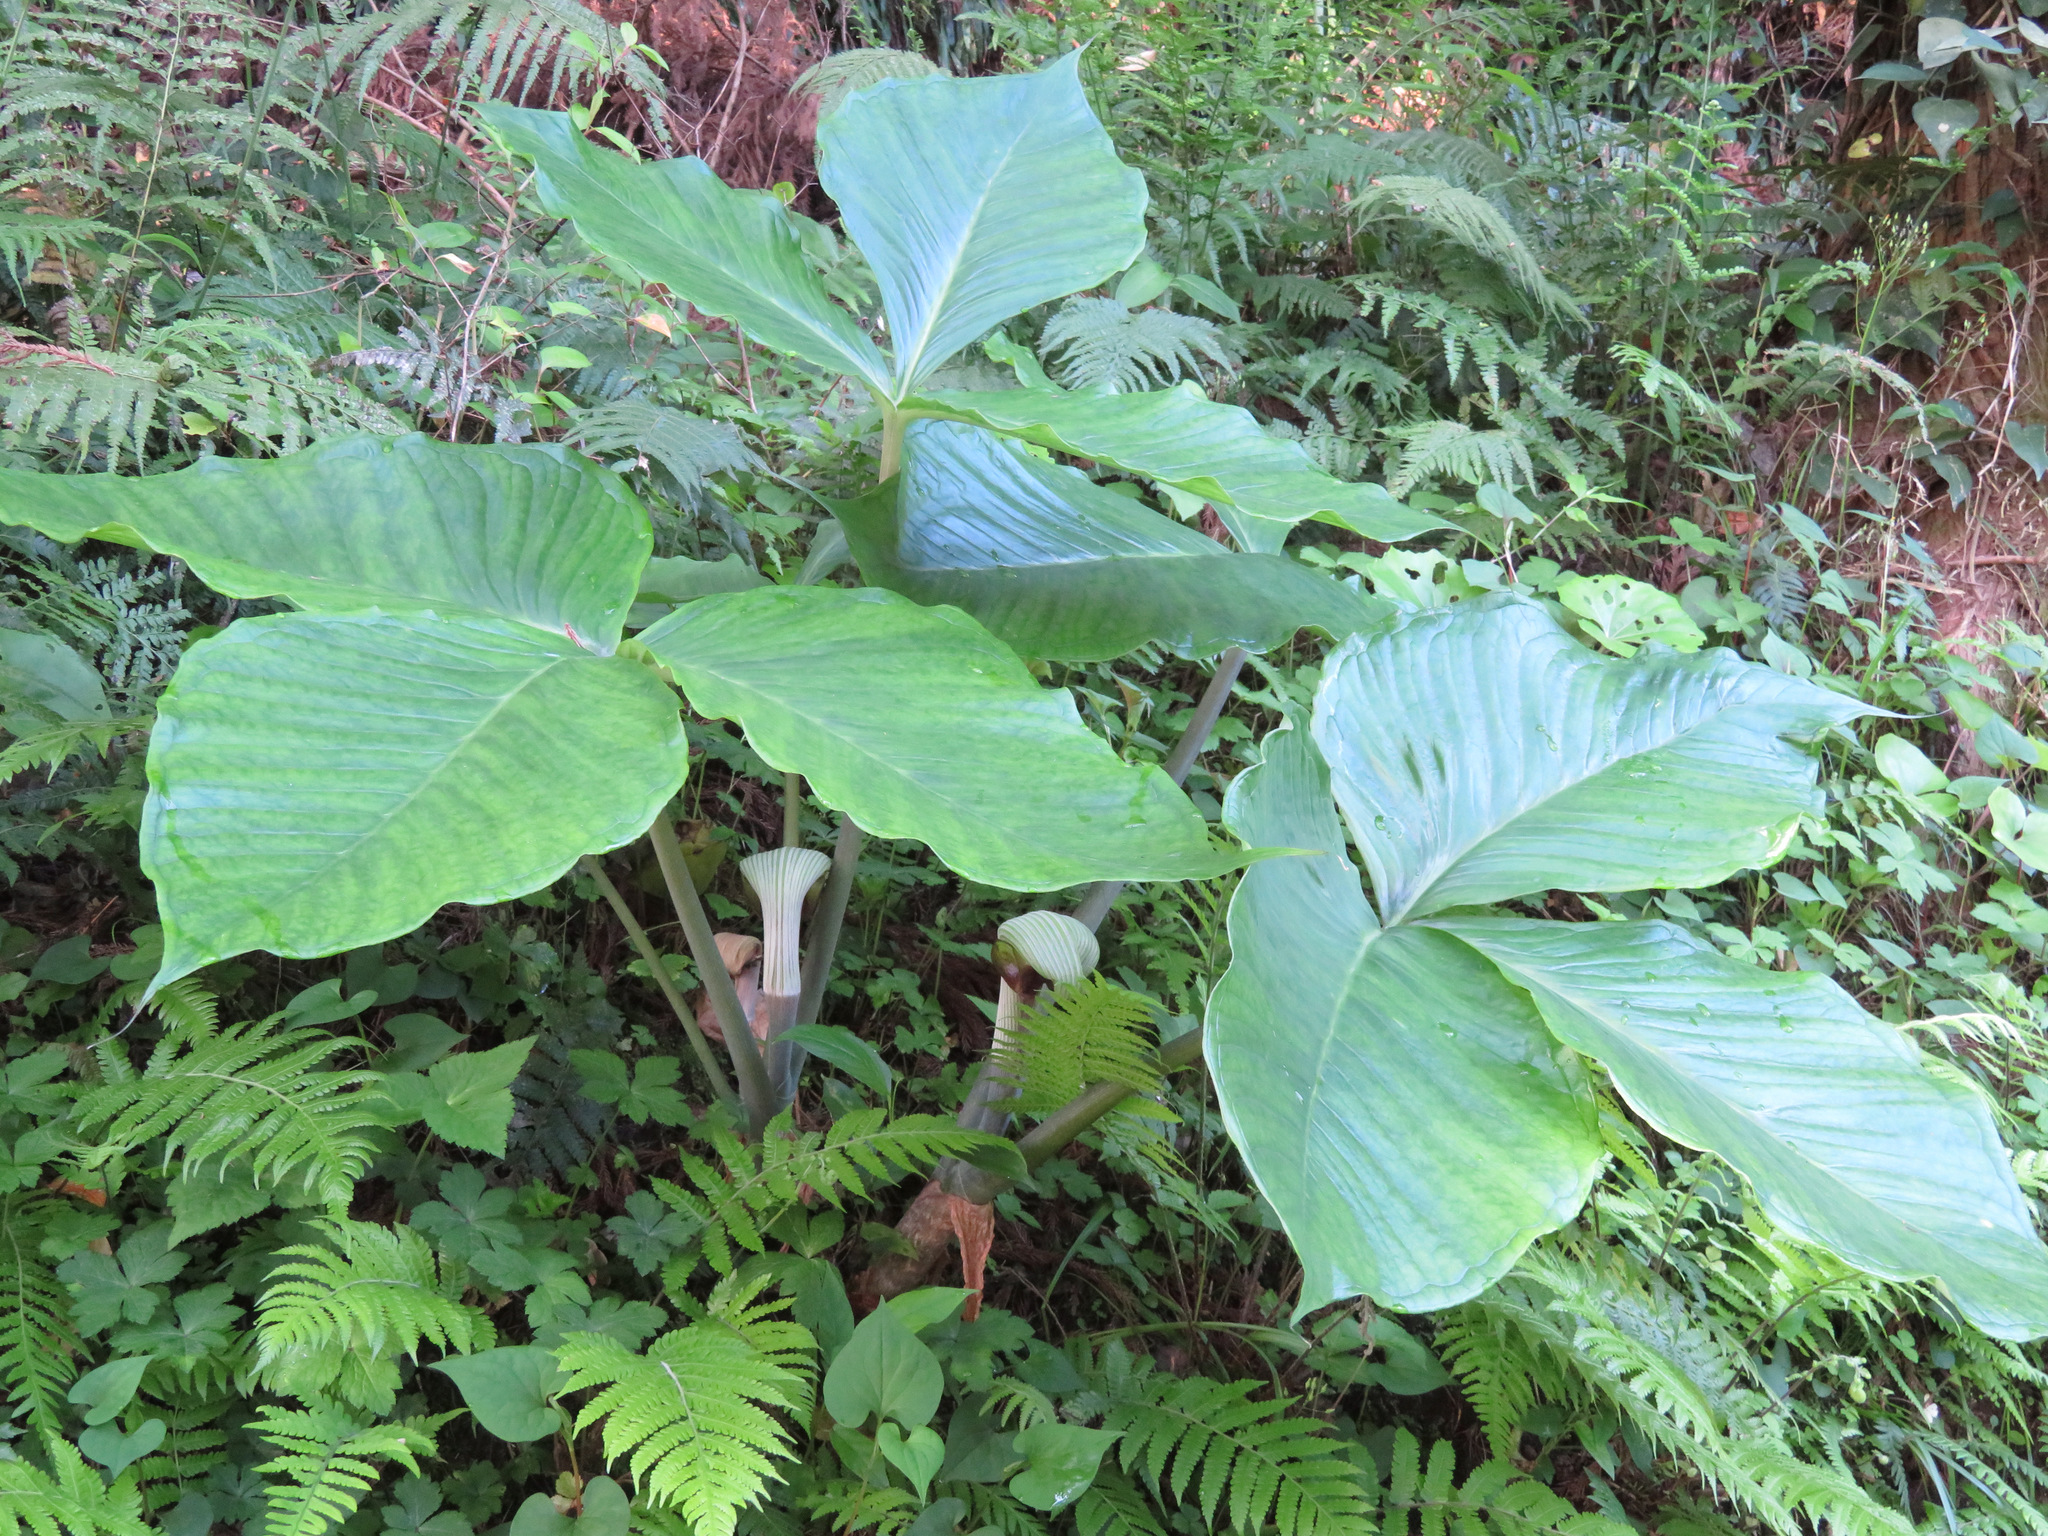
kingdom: Plantae
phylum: Tracheophyta
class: Liliopsida
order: Alismatales
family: Araceae
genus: Arisaema
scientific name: Arisaema ringens
